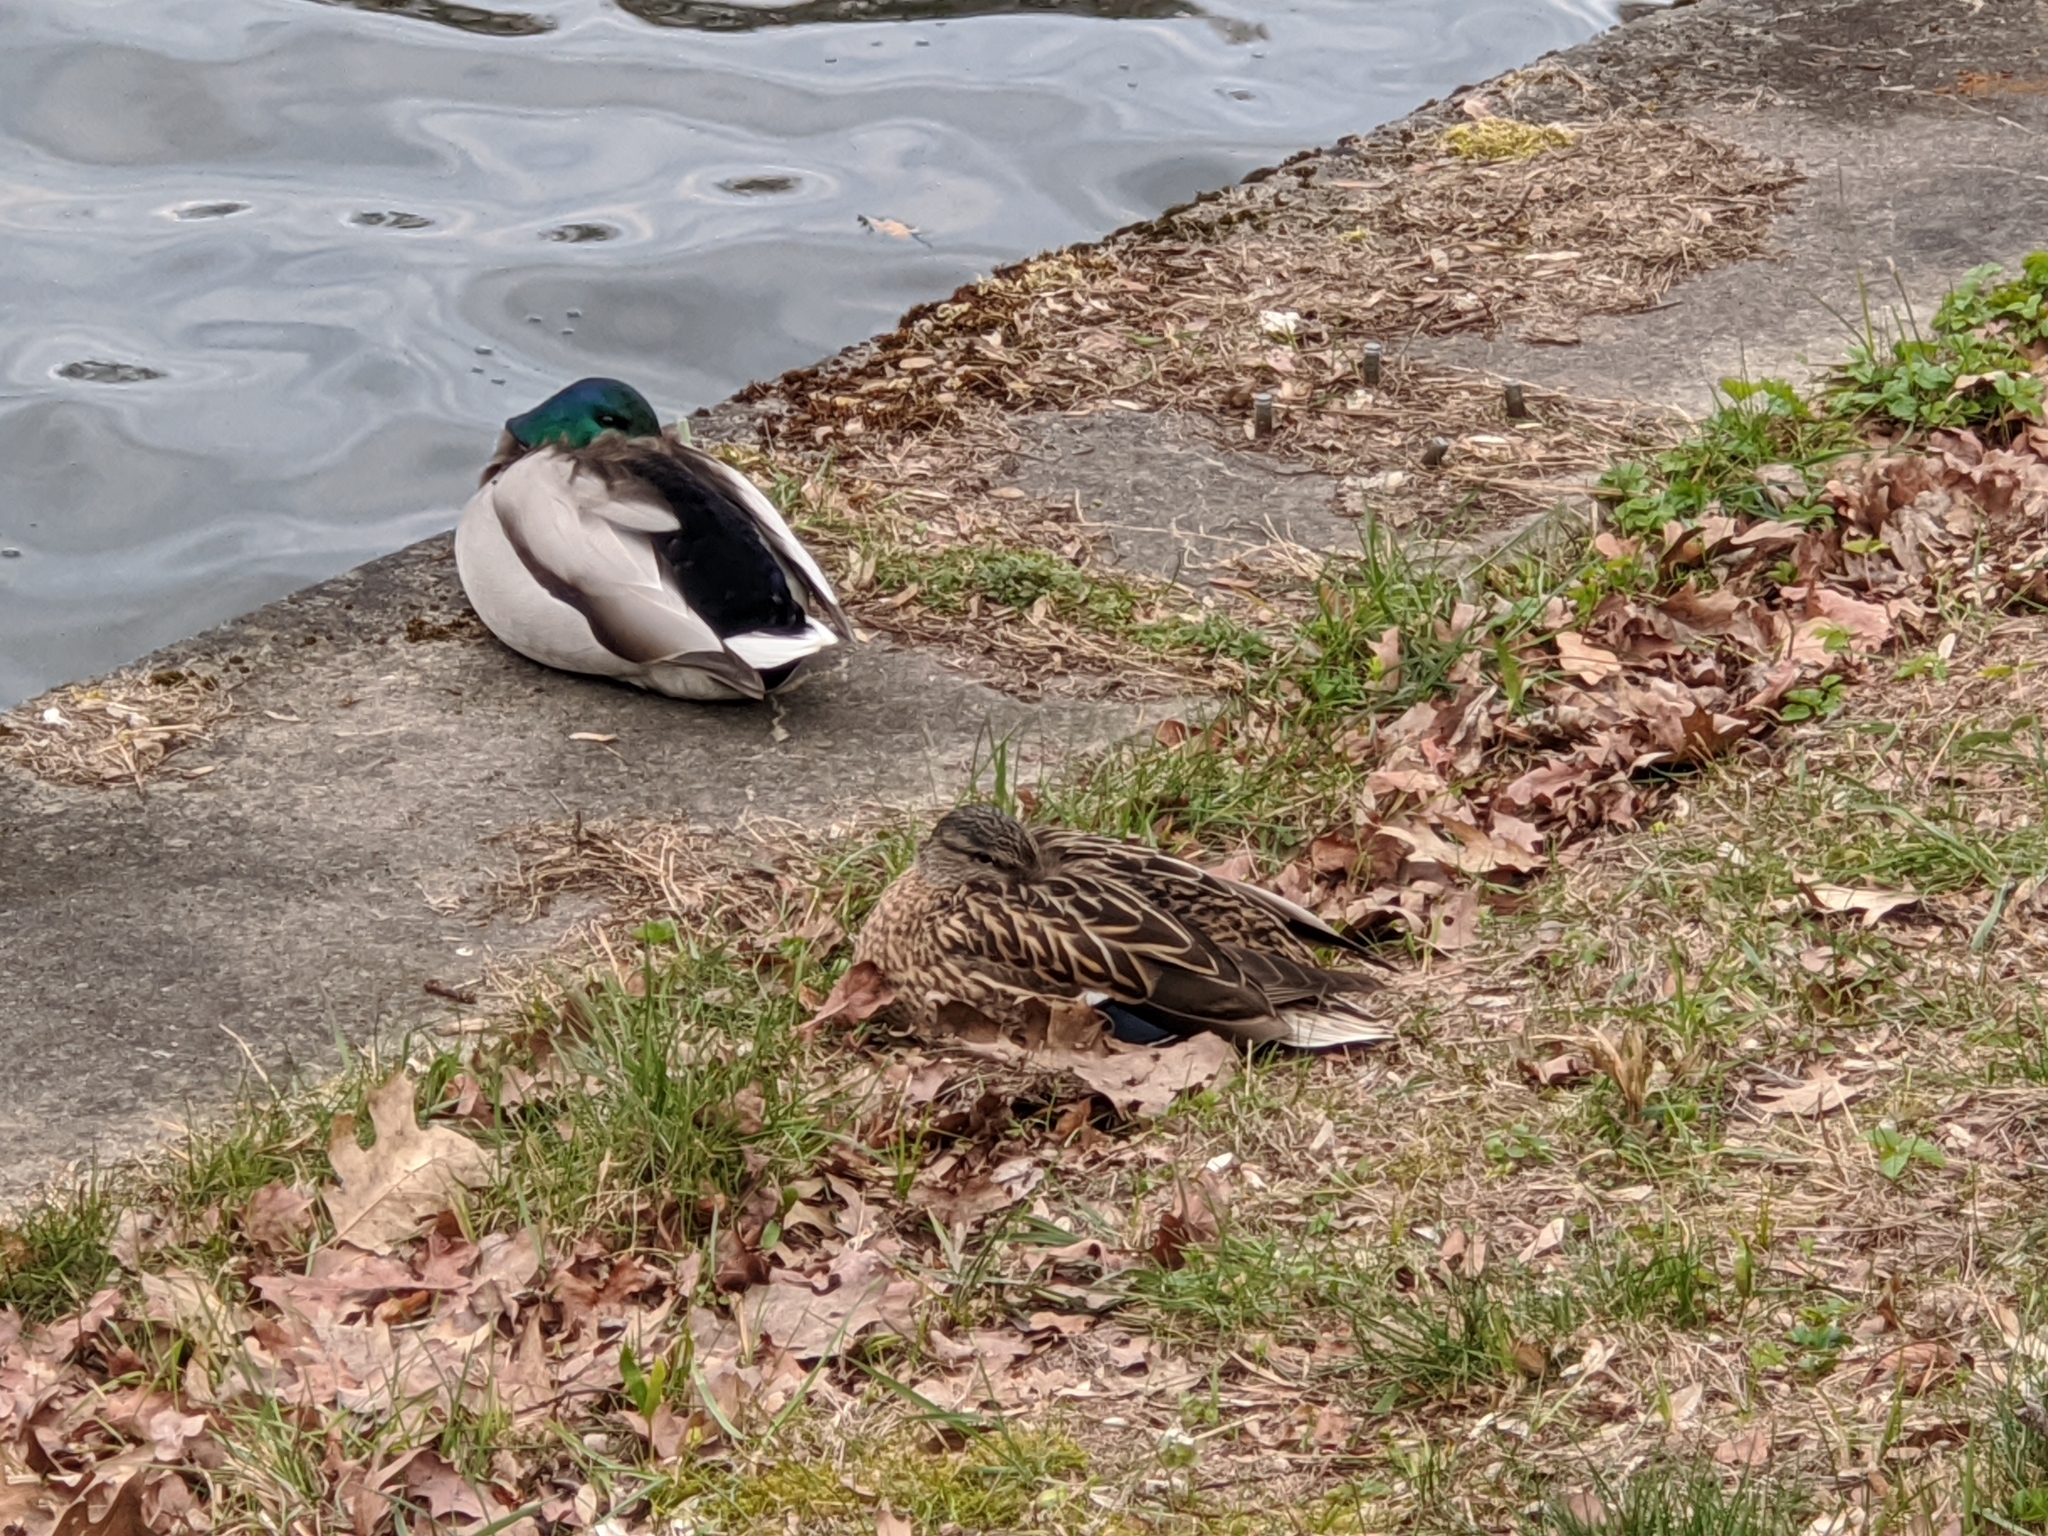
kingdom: Animalia
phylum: Chordata
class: Aves
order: Anseriformes
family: Anatidae
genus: Anas
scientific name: Anas platyrhynchos
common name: Mallard
